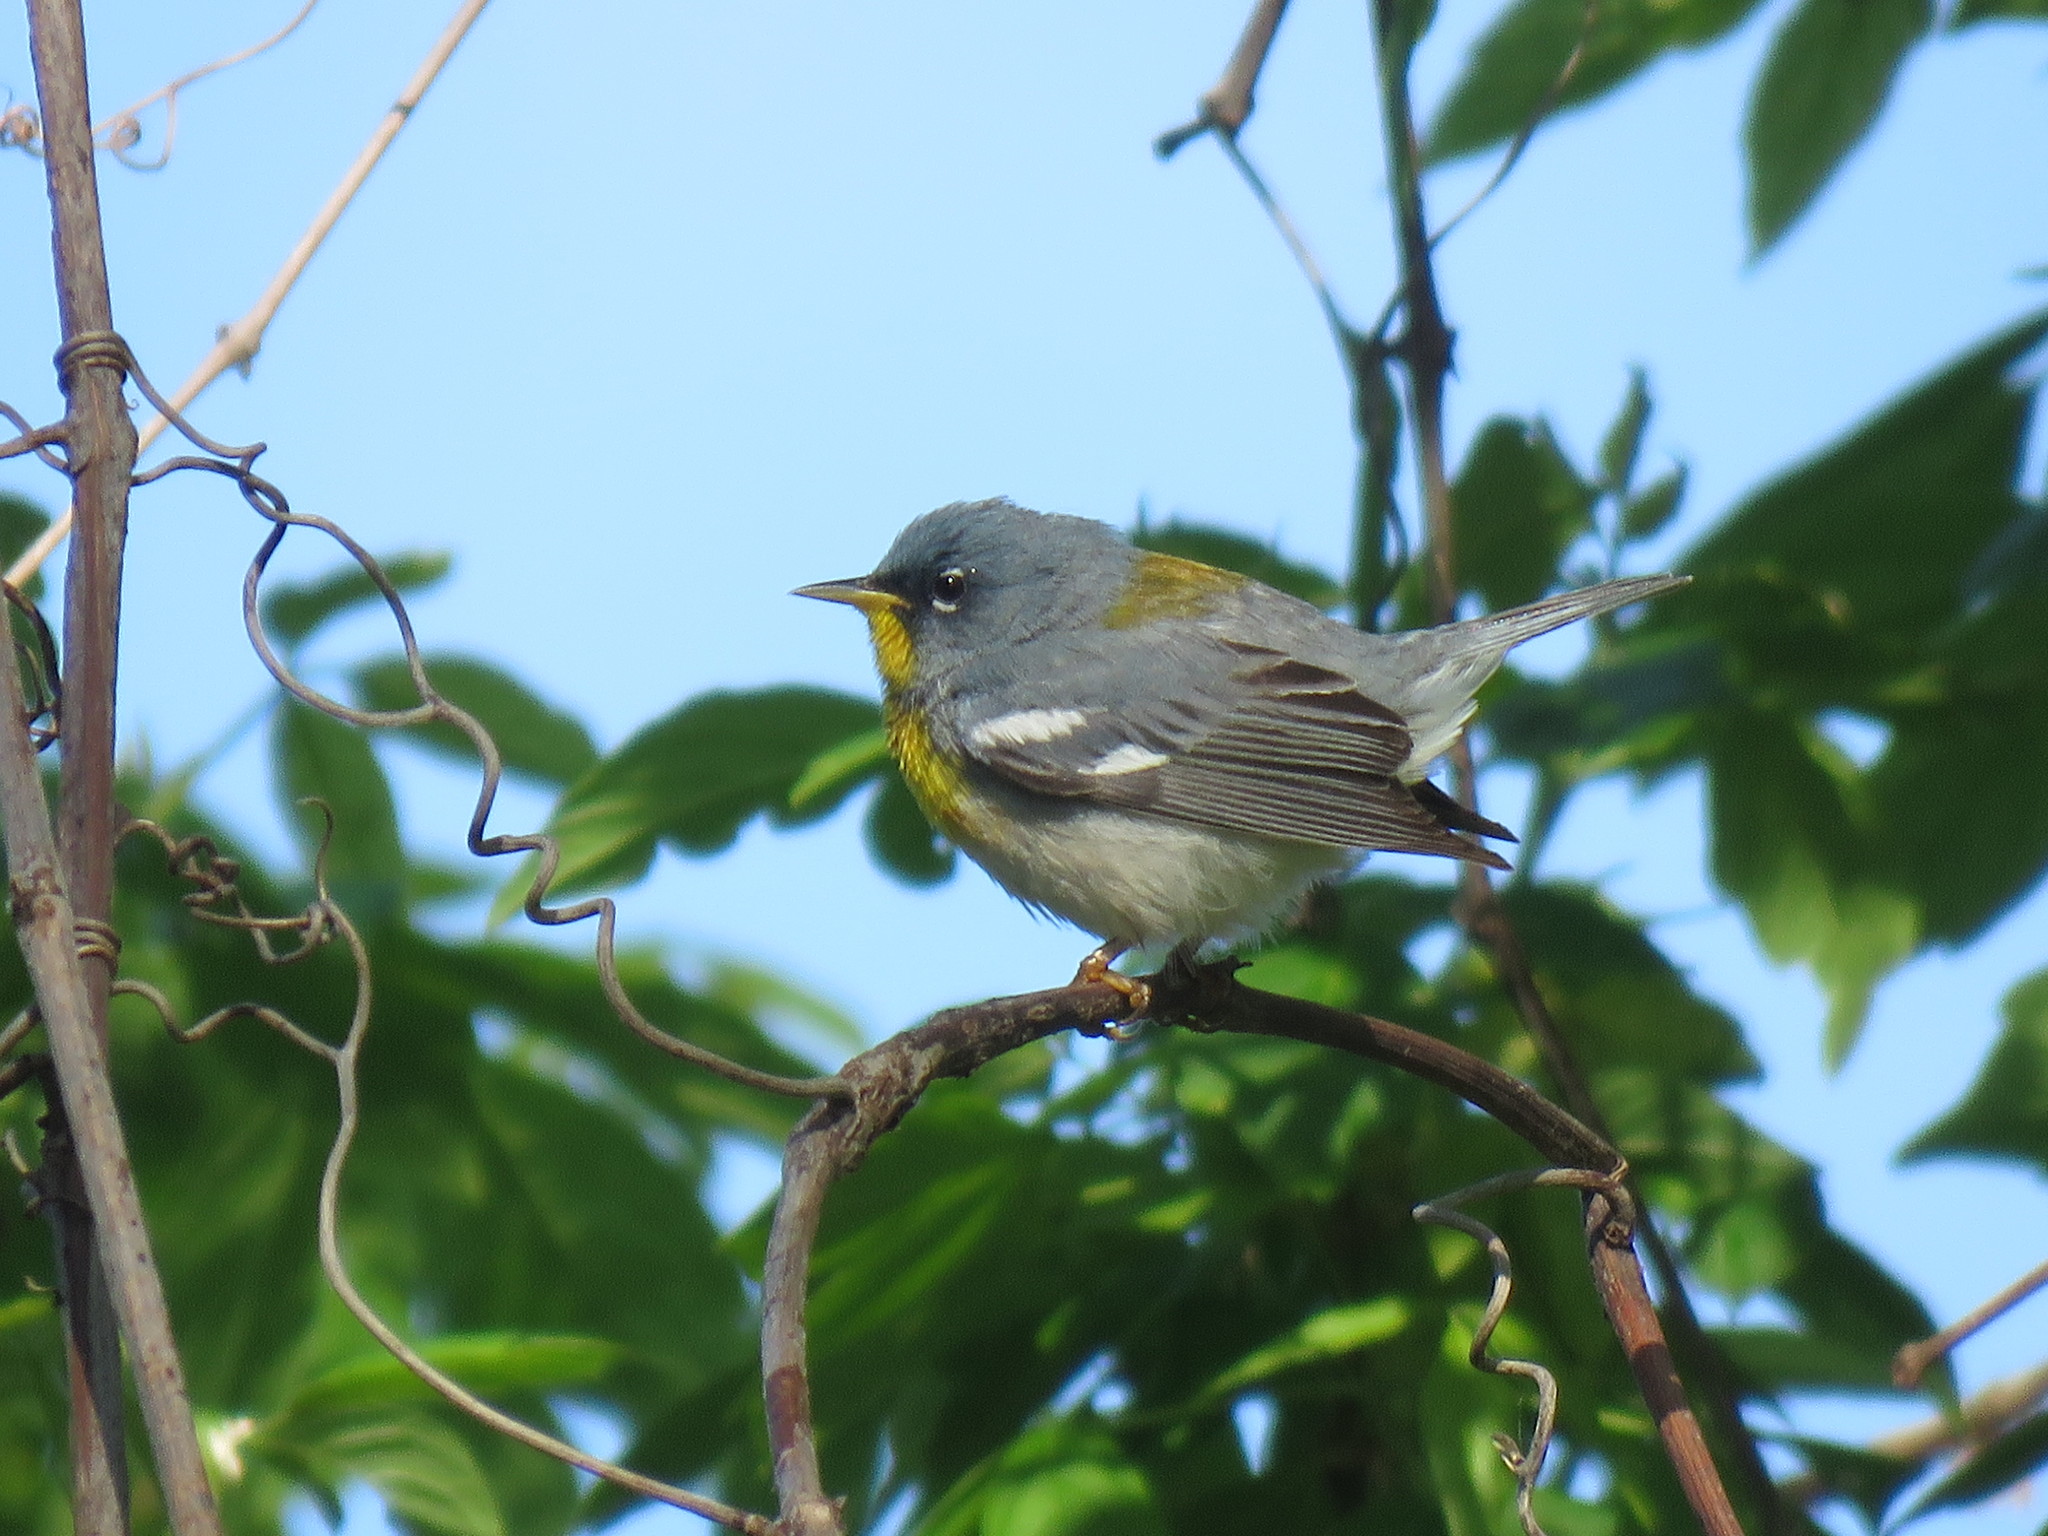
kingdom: Animalia
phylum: Chordata
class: Aves
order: Passeriformes
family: Parulidae
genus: Setophaga
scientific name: Setophaga americana
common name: Northern parula
